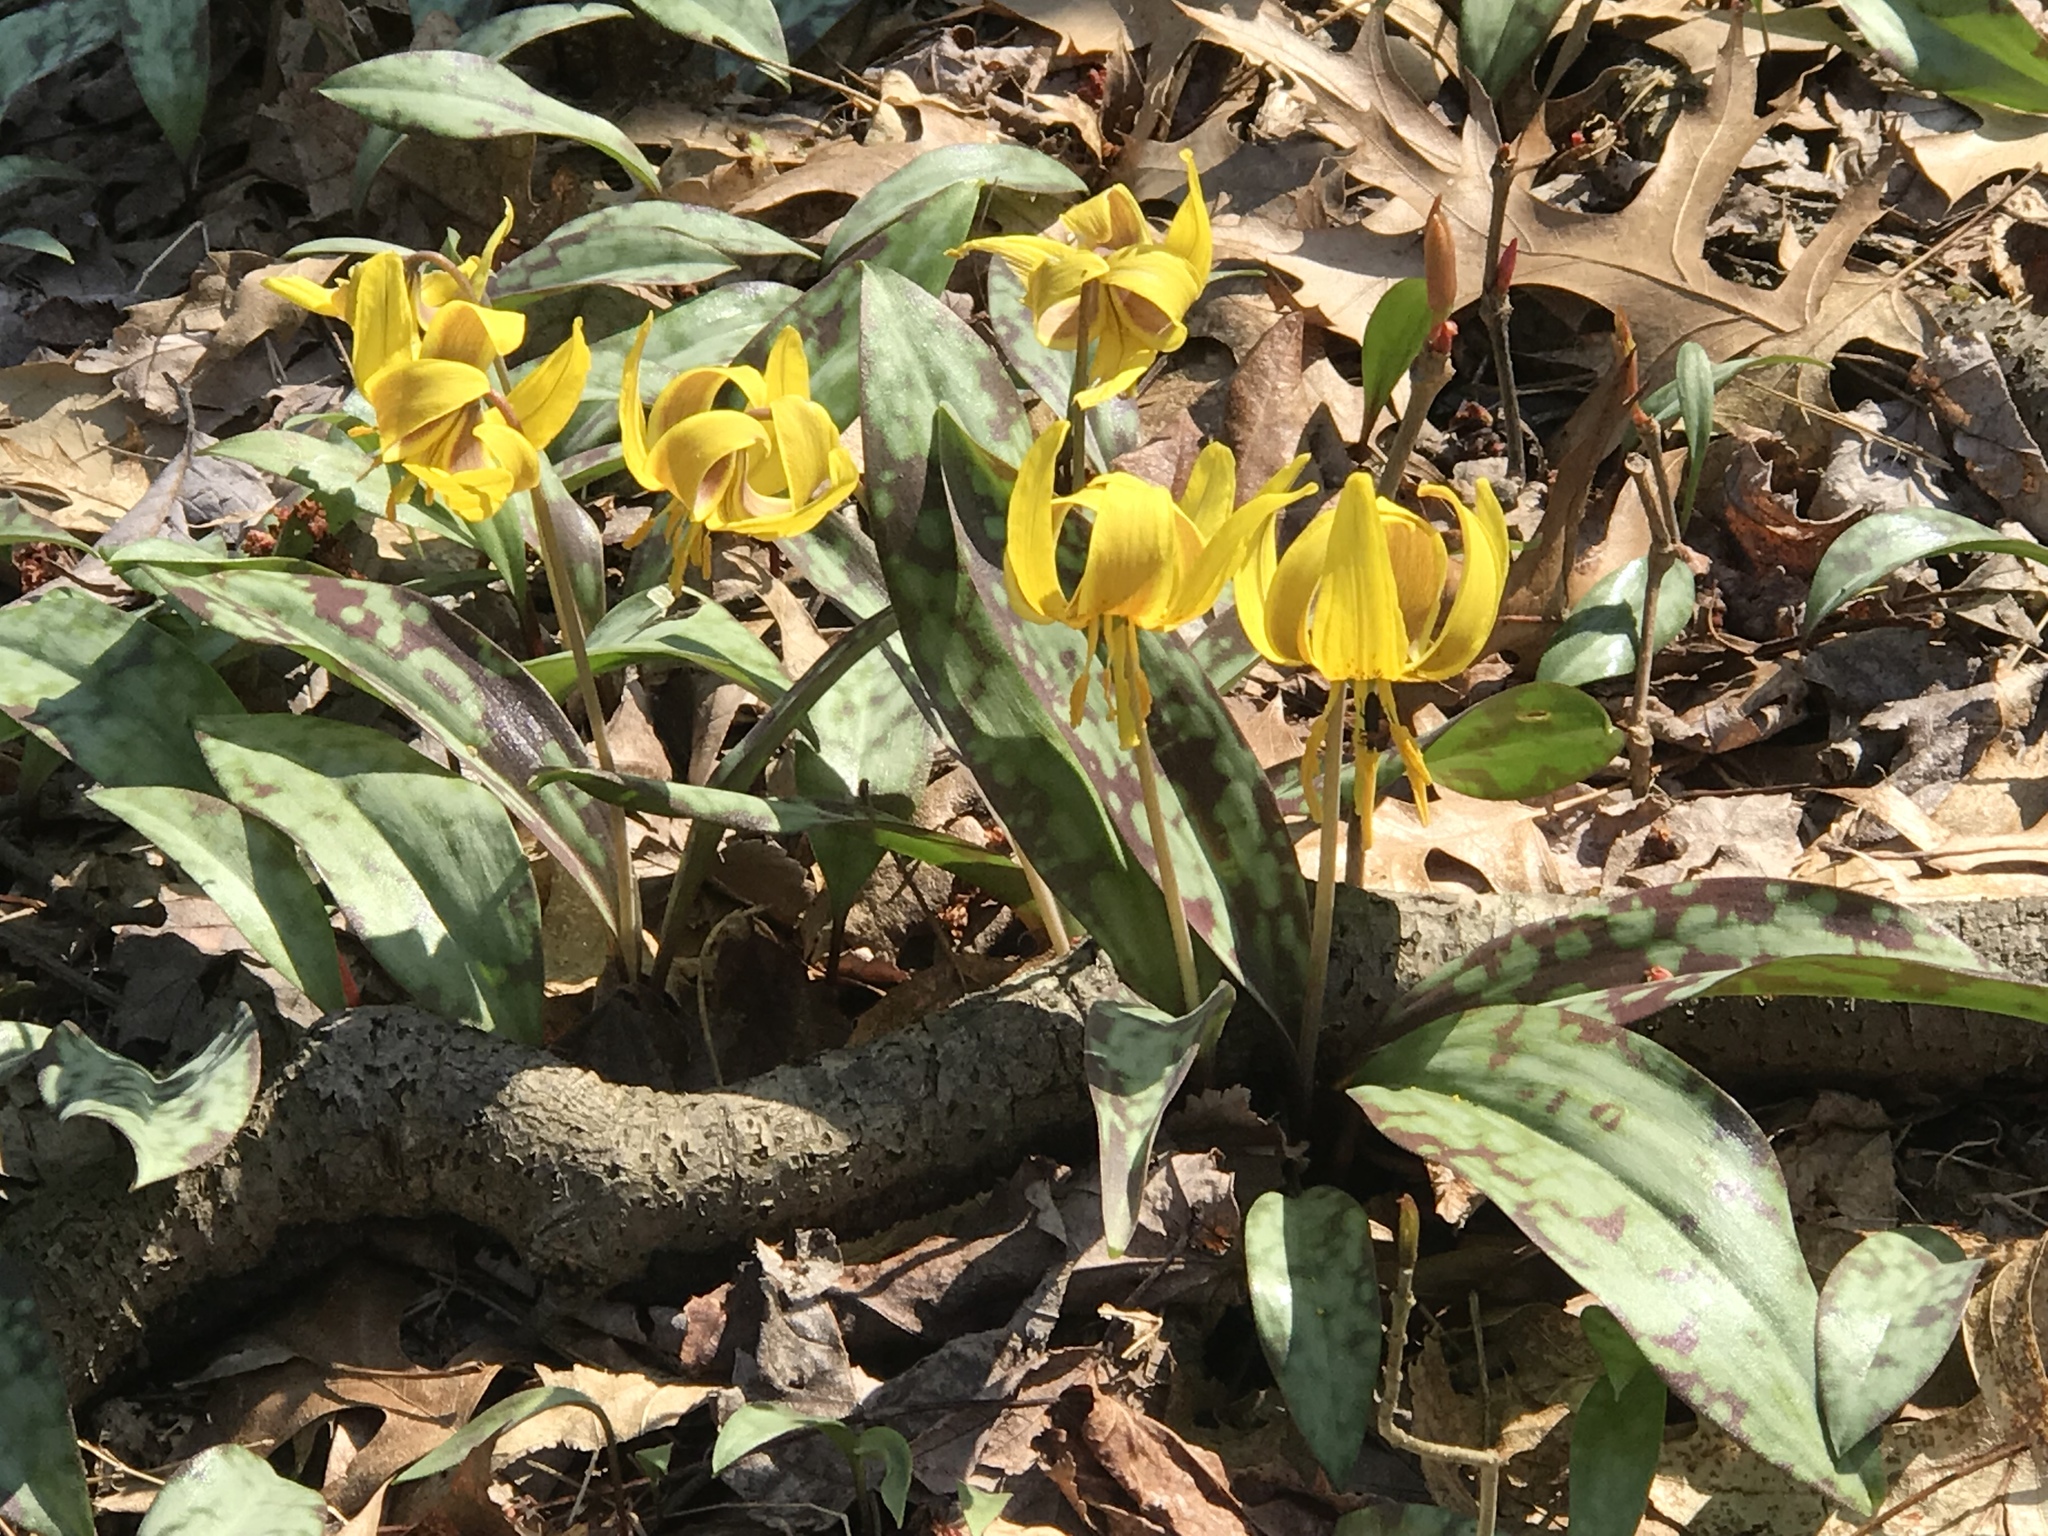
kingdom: Plantae
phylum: Tracheophyta
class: Liliopsida
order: Liliales
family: Liliaceae
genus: Erythronium
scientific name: Erythronium americanum
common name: Yellow adder's-tongue
